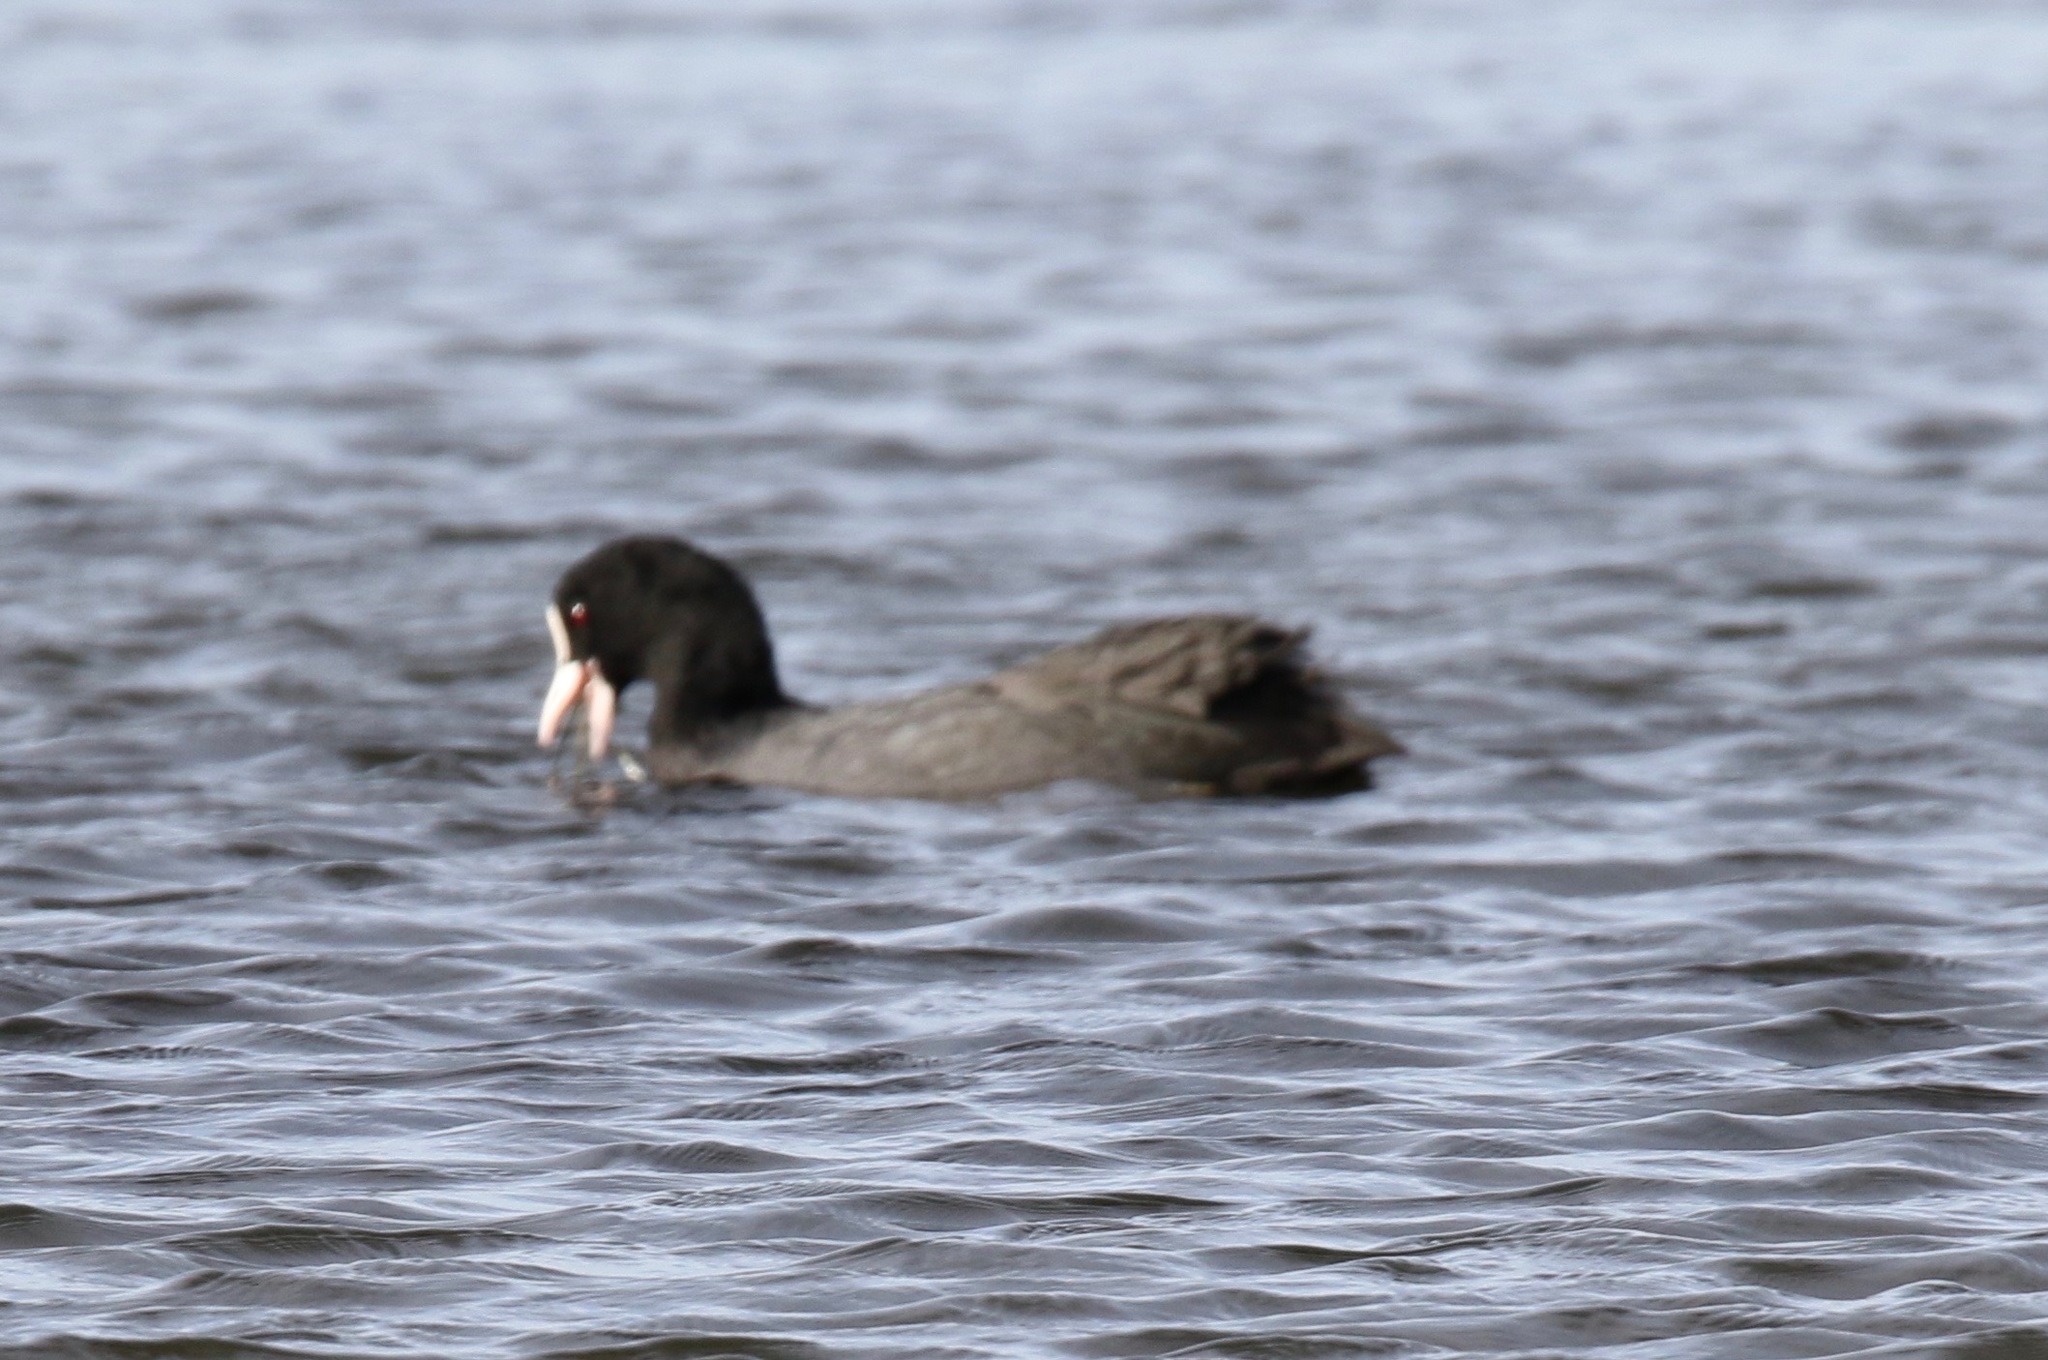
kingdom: Animalia
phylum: Chordata
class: Aves
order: Gruiformes
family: Rallidae
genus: Fulica
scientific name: Fulica atra
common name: Eurasian coot
